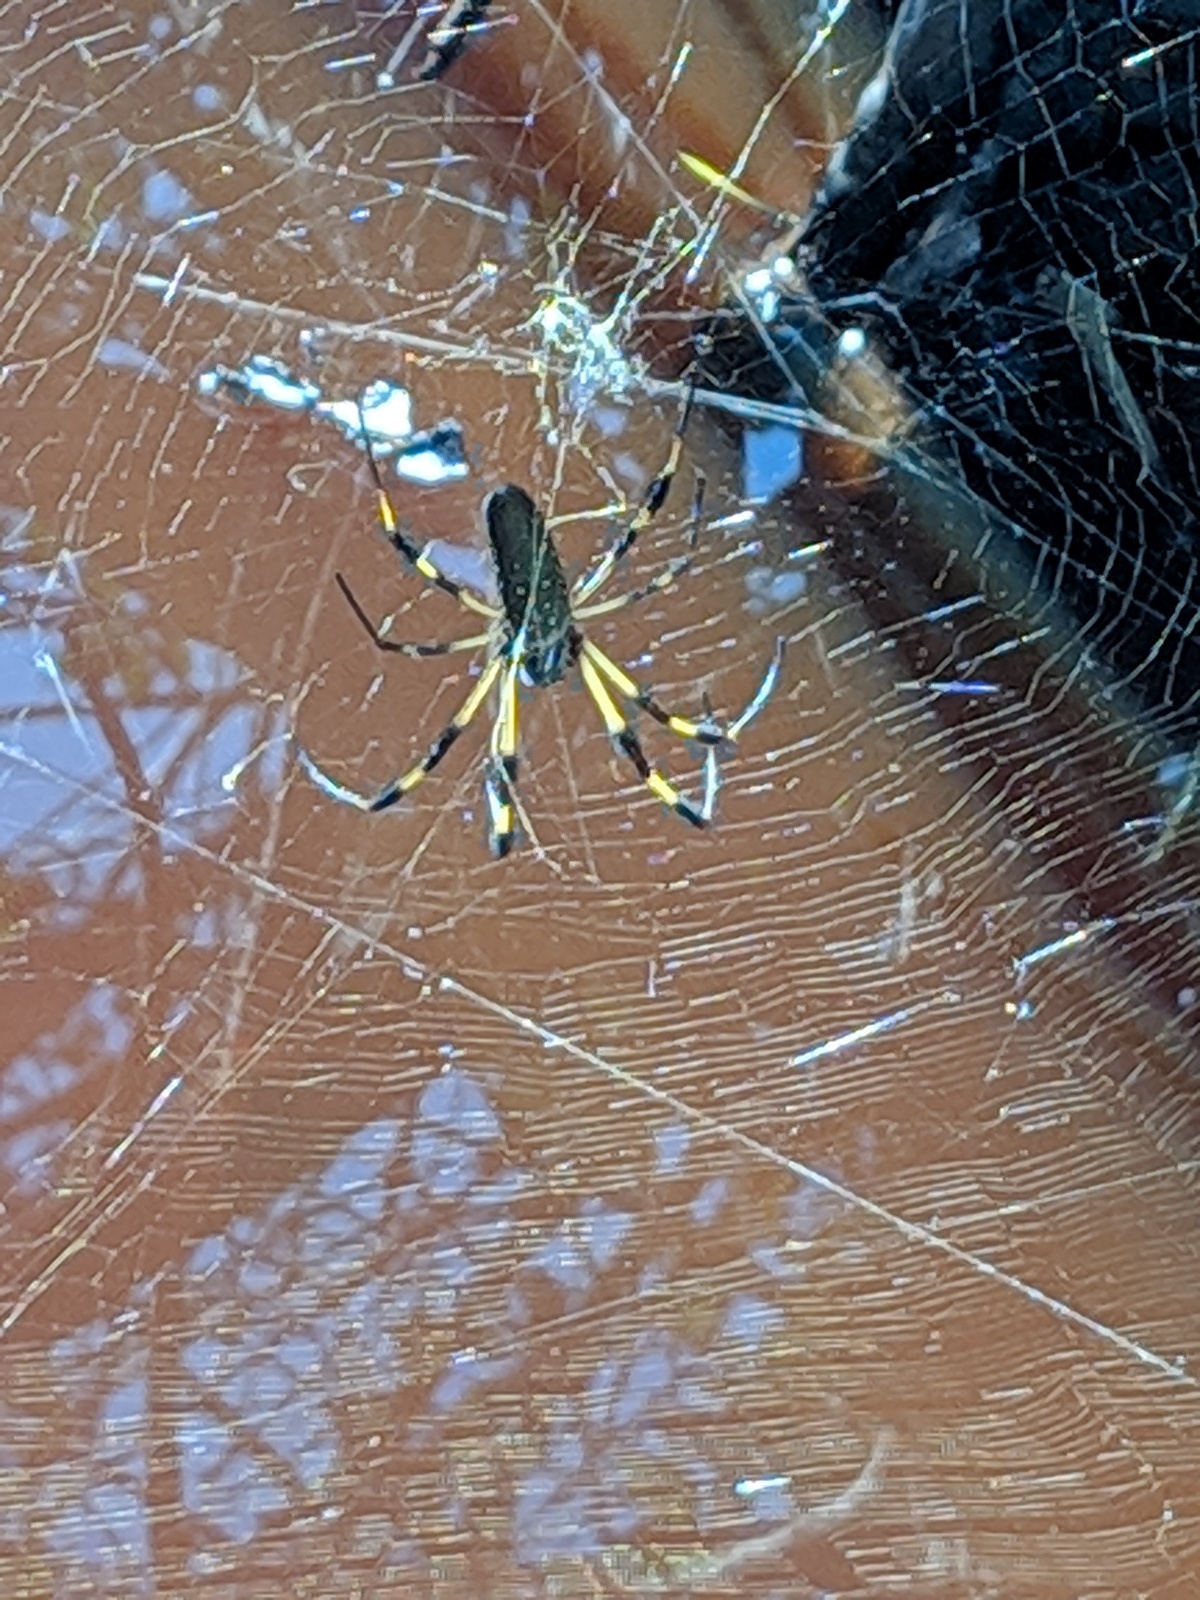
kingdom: Animalia
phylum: Arthropoda
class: Arachnida
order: Araneae
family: Araneidae
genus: Trichonephila
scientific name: Trichonephila clavipes
